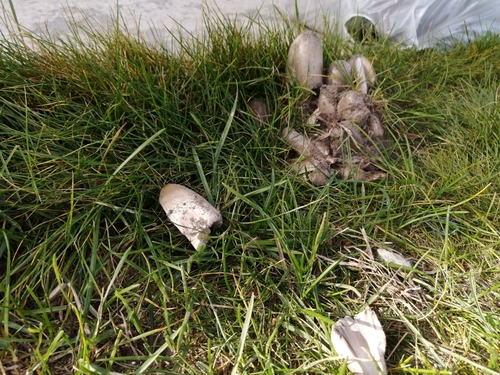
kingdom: Fungi
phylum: Basidiomycota
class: Agaricomycetes
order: Agaricales
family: Psathyrellaceae
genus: Coprinopsis
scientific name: Coprinopsis atramentaria
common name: Common ink-cap
